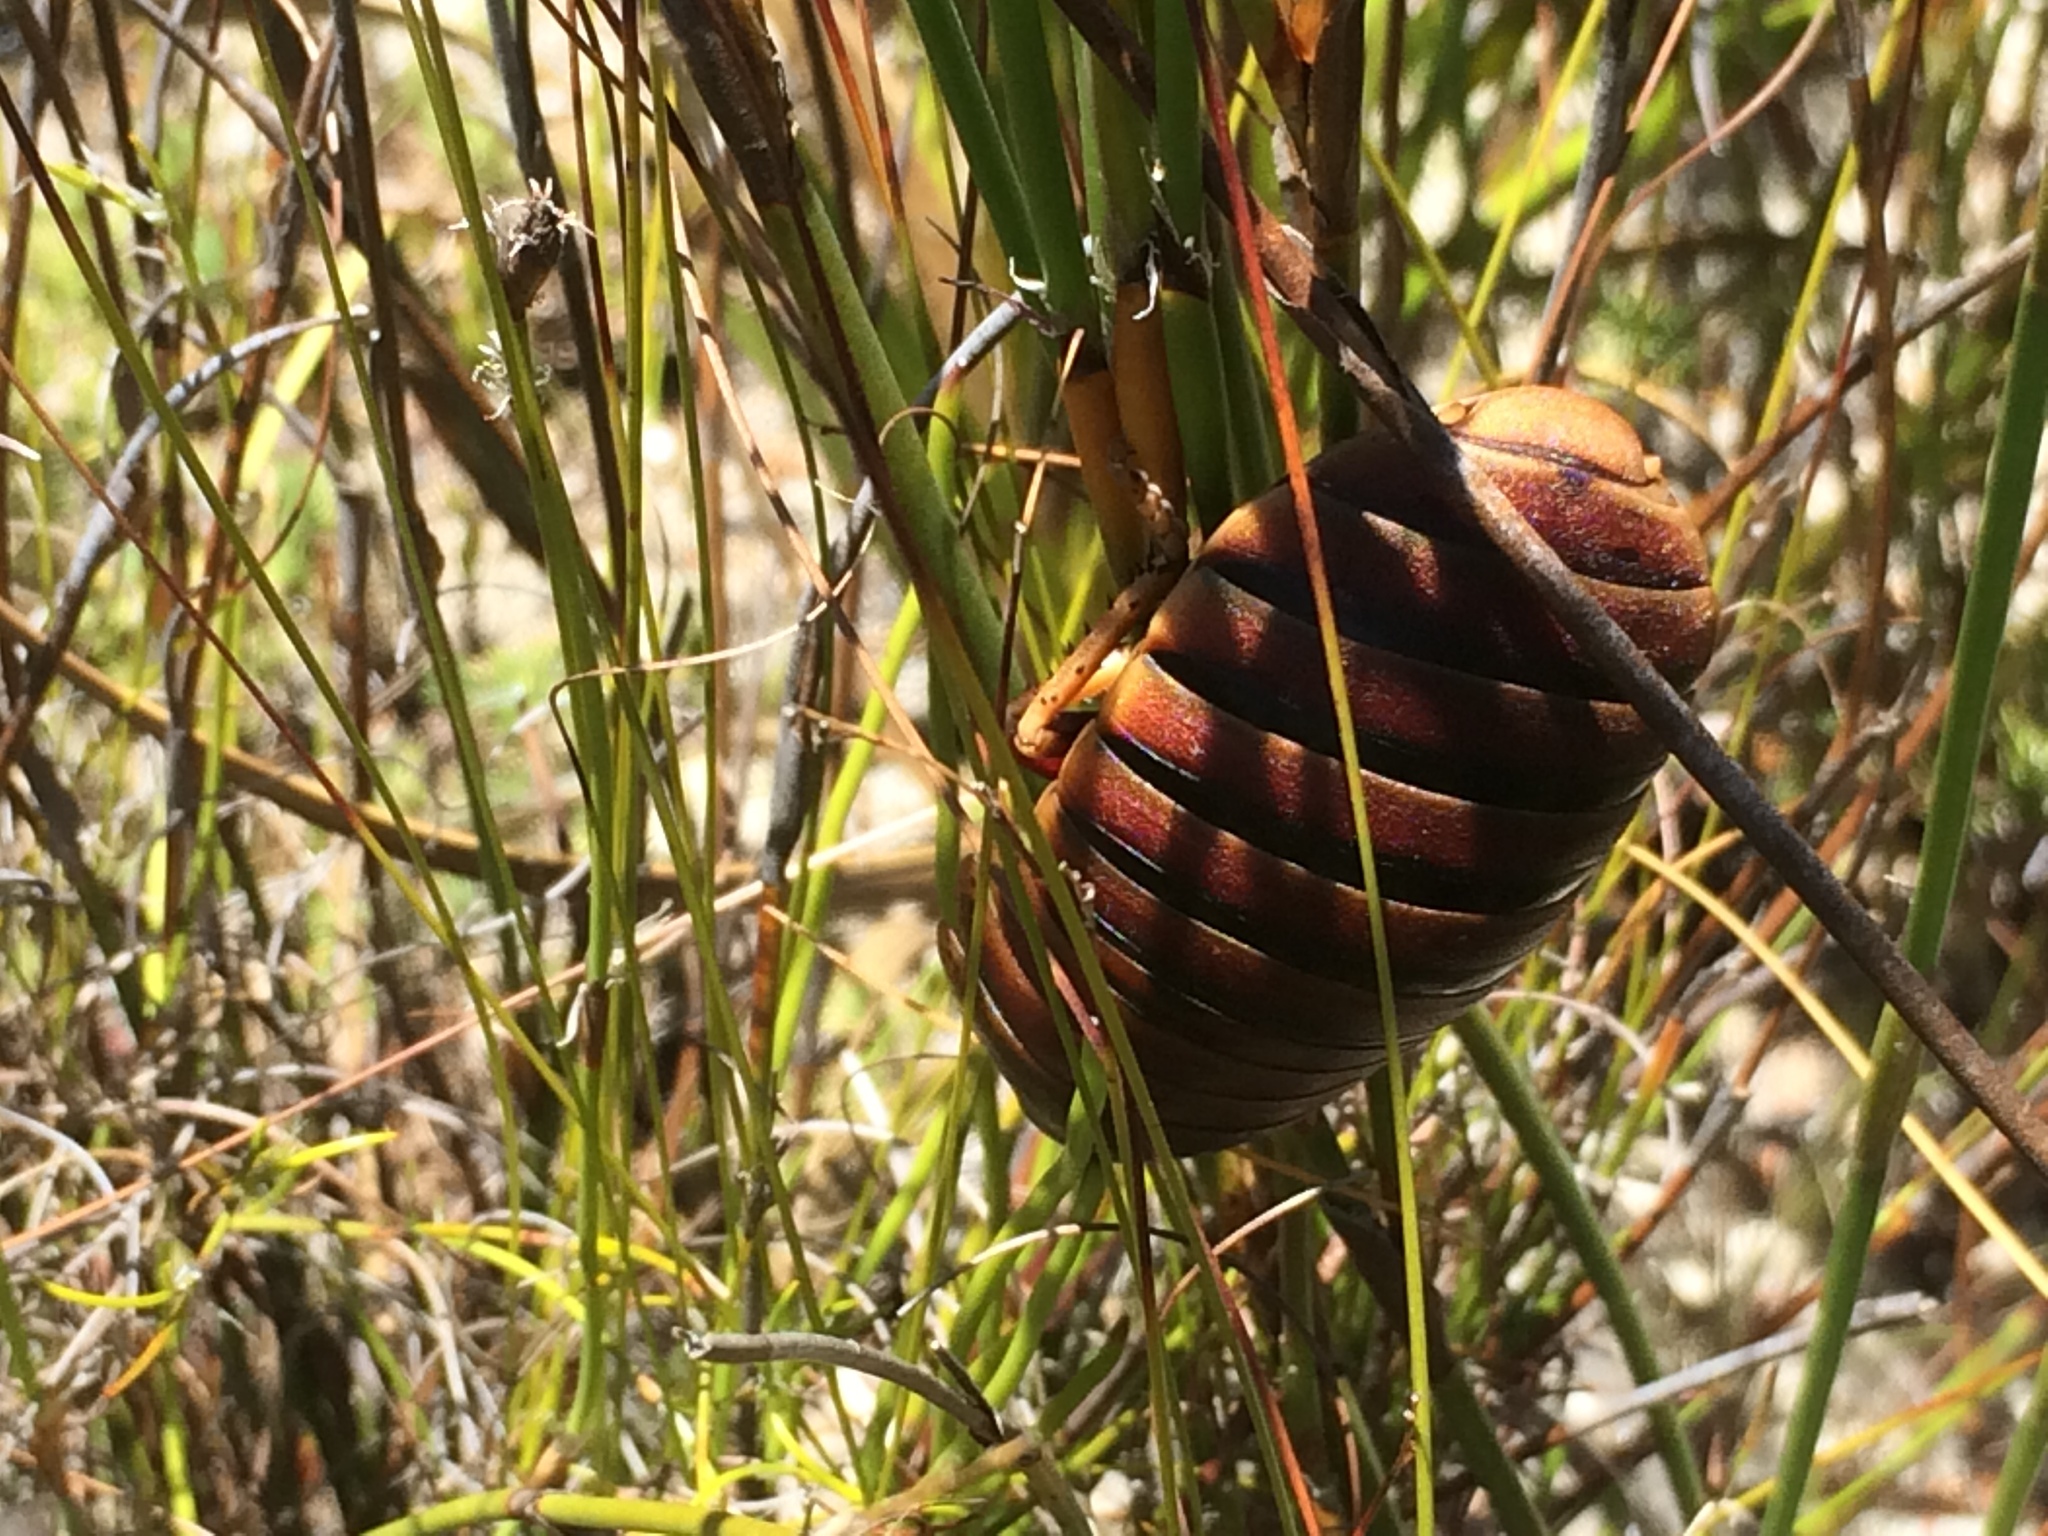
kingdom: Animalia
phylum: Arthropoda
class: Insecta
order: Blattodea
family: Blaberidae
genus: Aptera
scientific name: Aptera fusca
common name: Cape mountain cockroach
